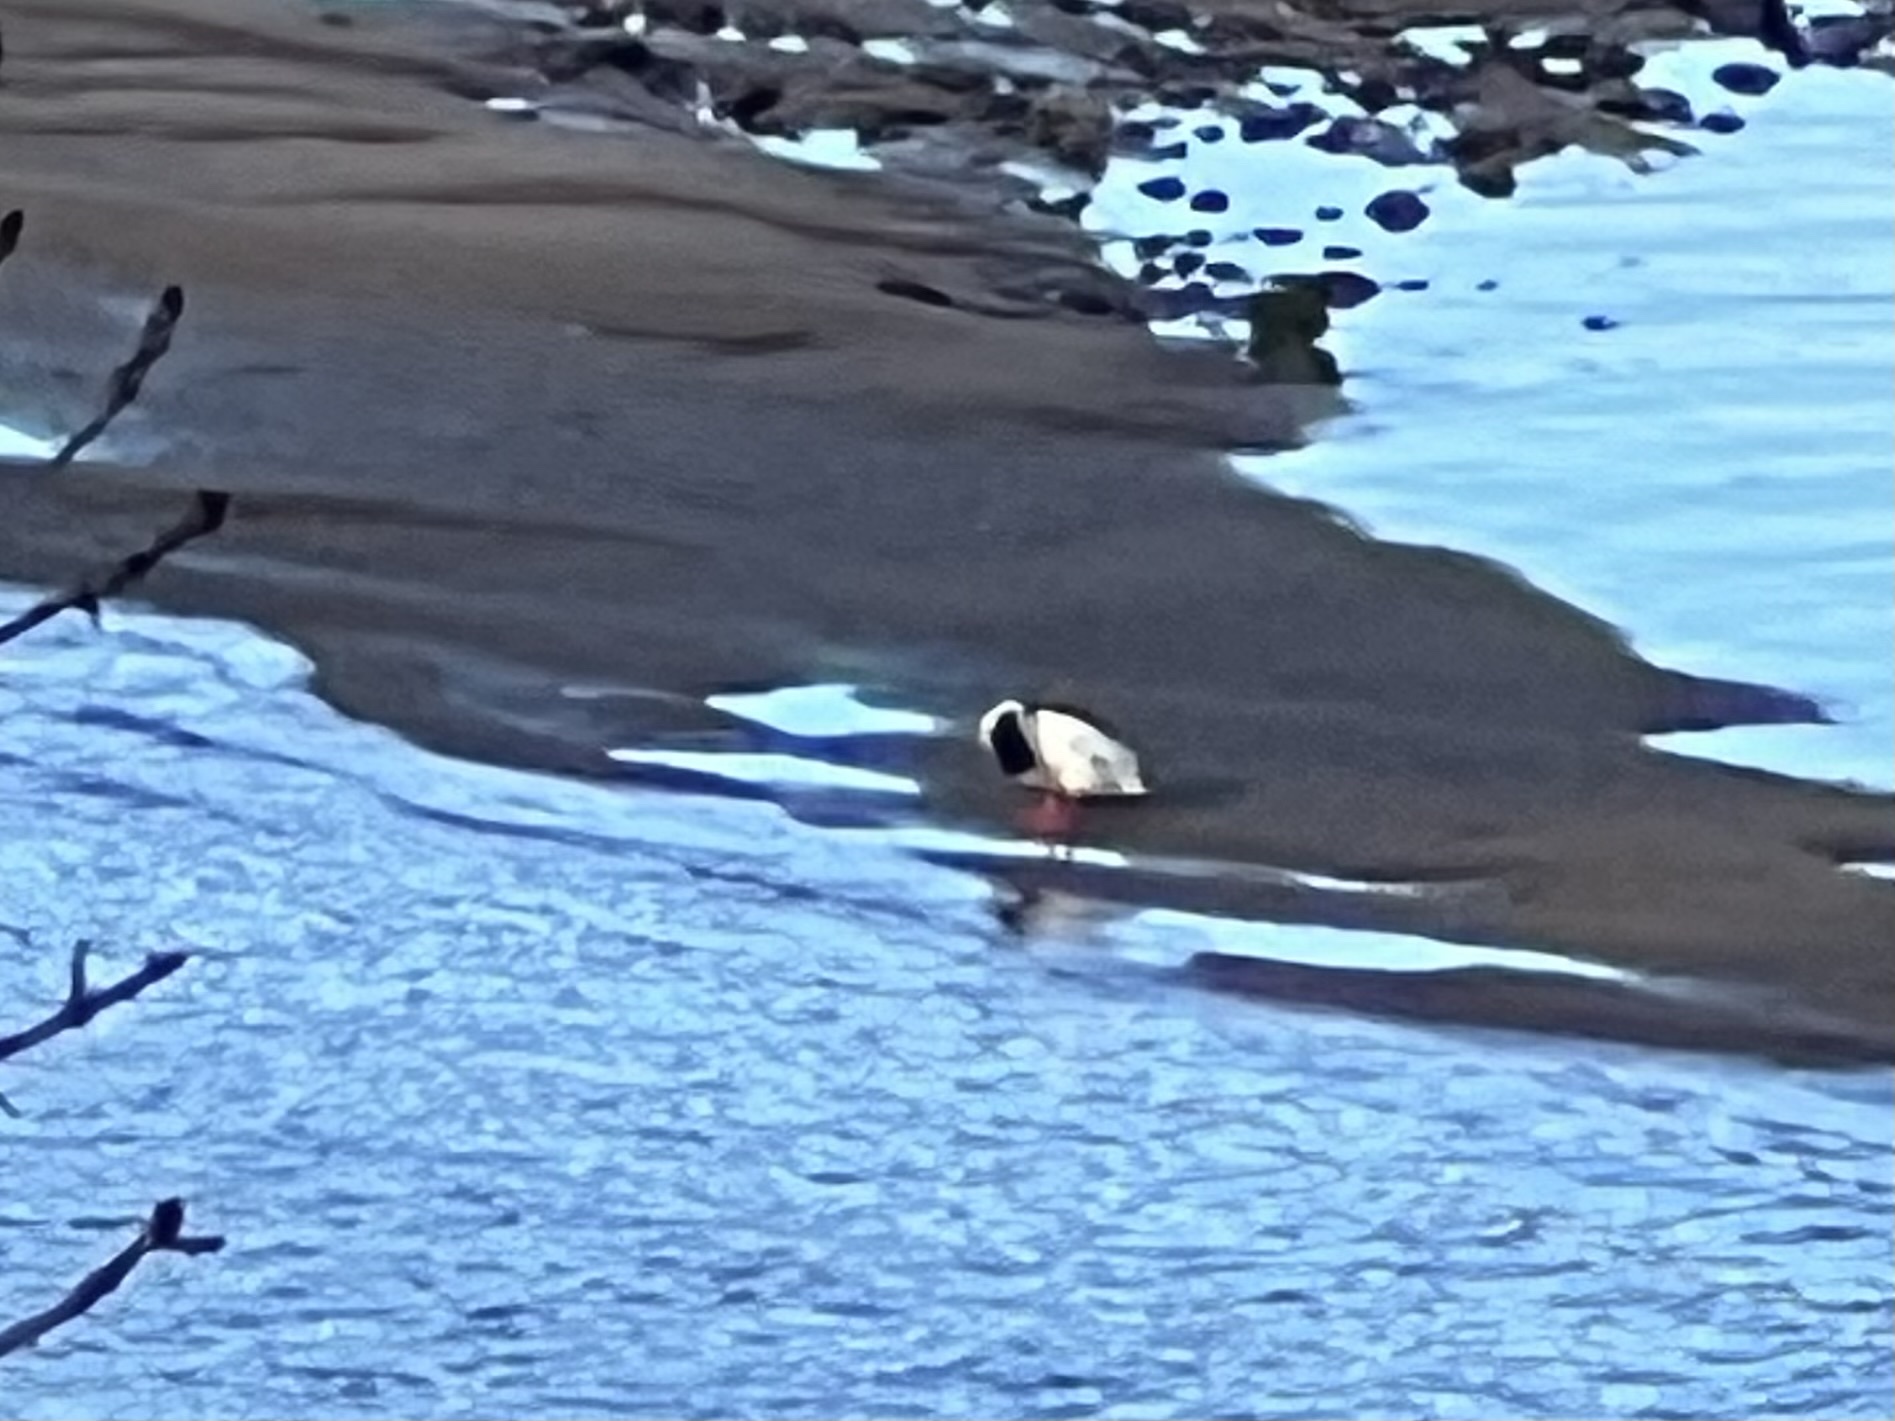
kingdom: Animalia
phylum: Chordata
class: Aves
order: Anseriformes
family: Anatidae
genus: Mergus
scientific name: Mergus merganser
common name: Common merganser
